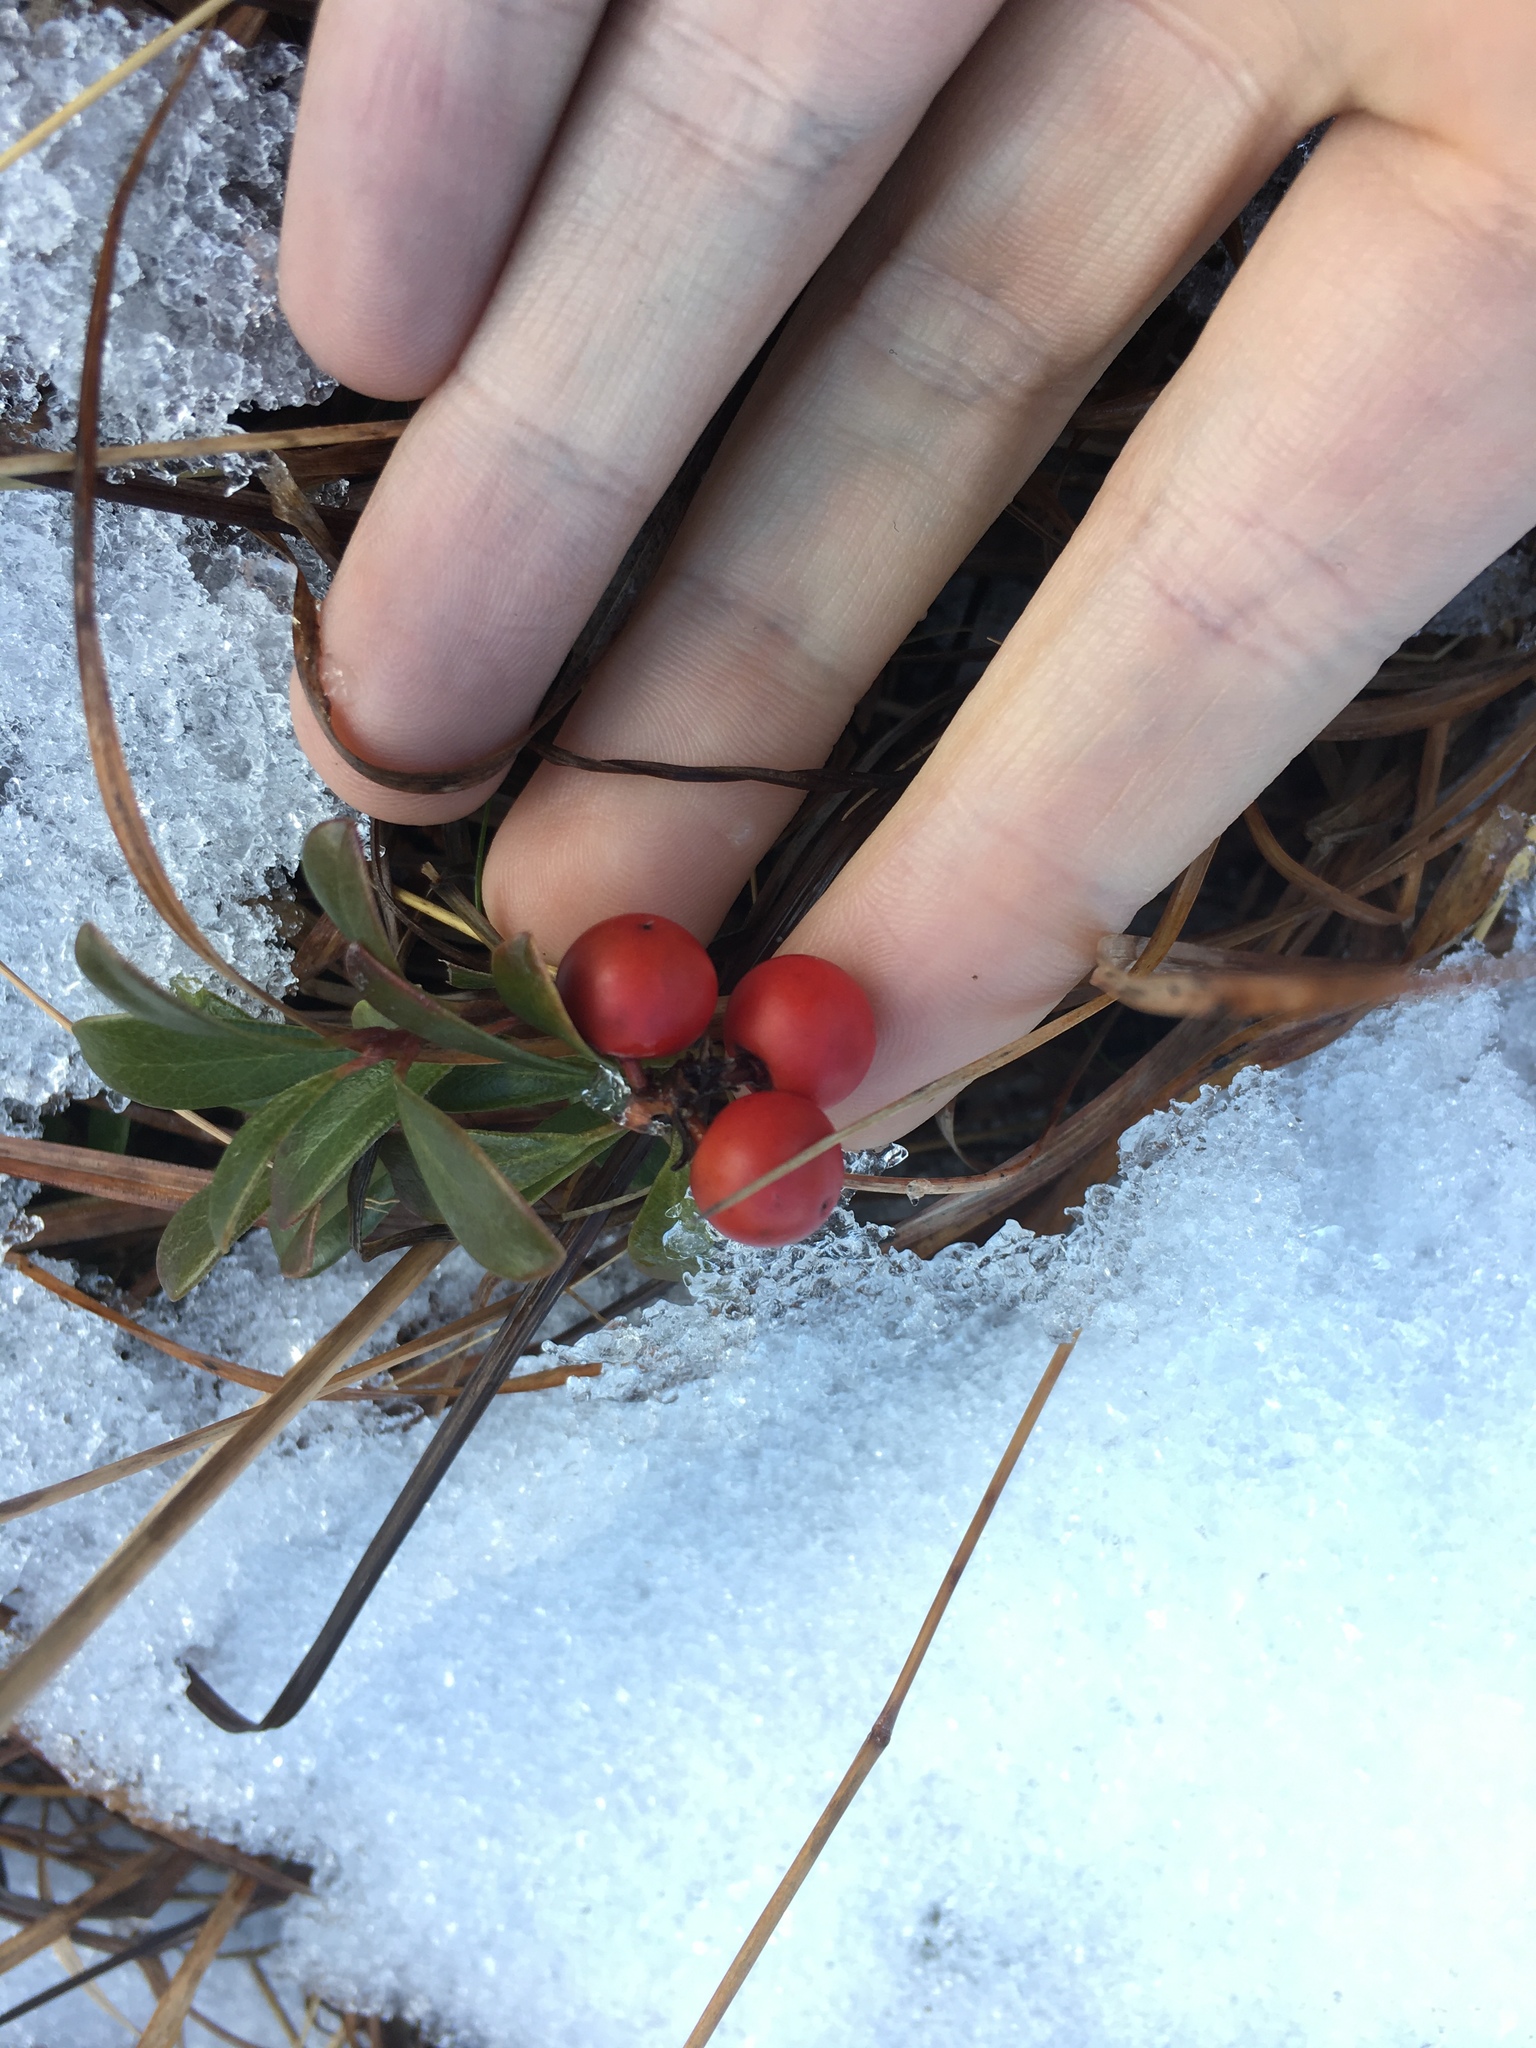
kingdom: Plantae
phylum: Tracheophyta
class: Magnoliopsida
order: Ericales
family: Ericaceae
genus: Arctostaphylos
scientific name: Arctostaphylos uva-ursi
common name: Bearberry
